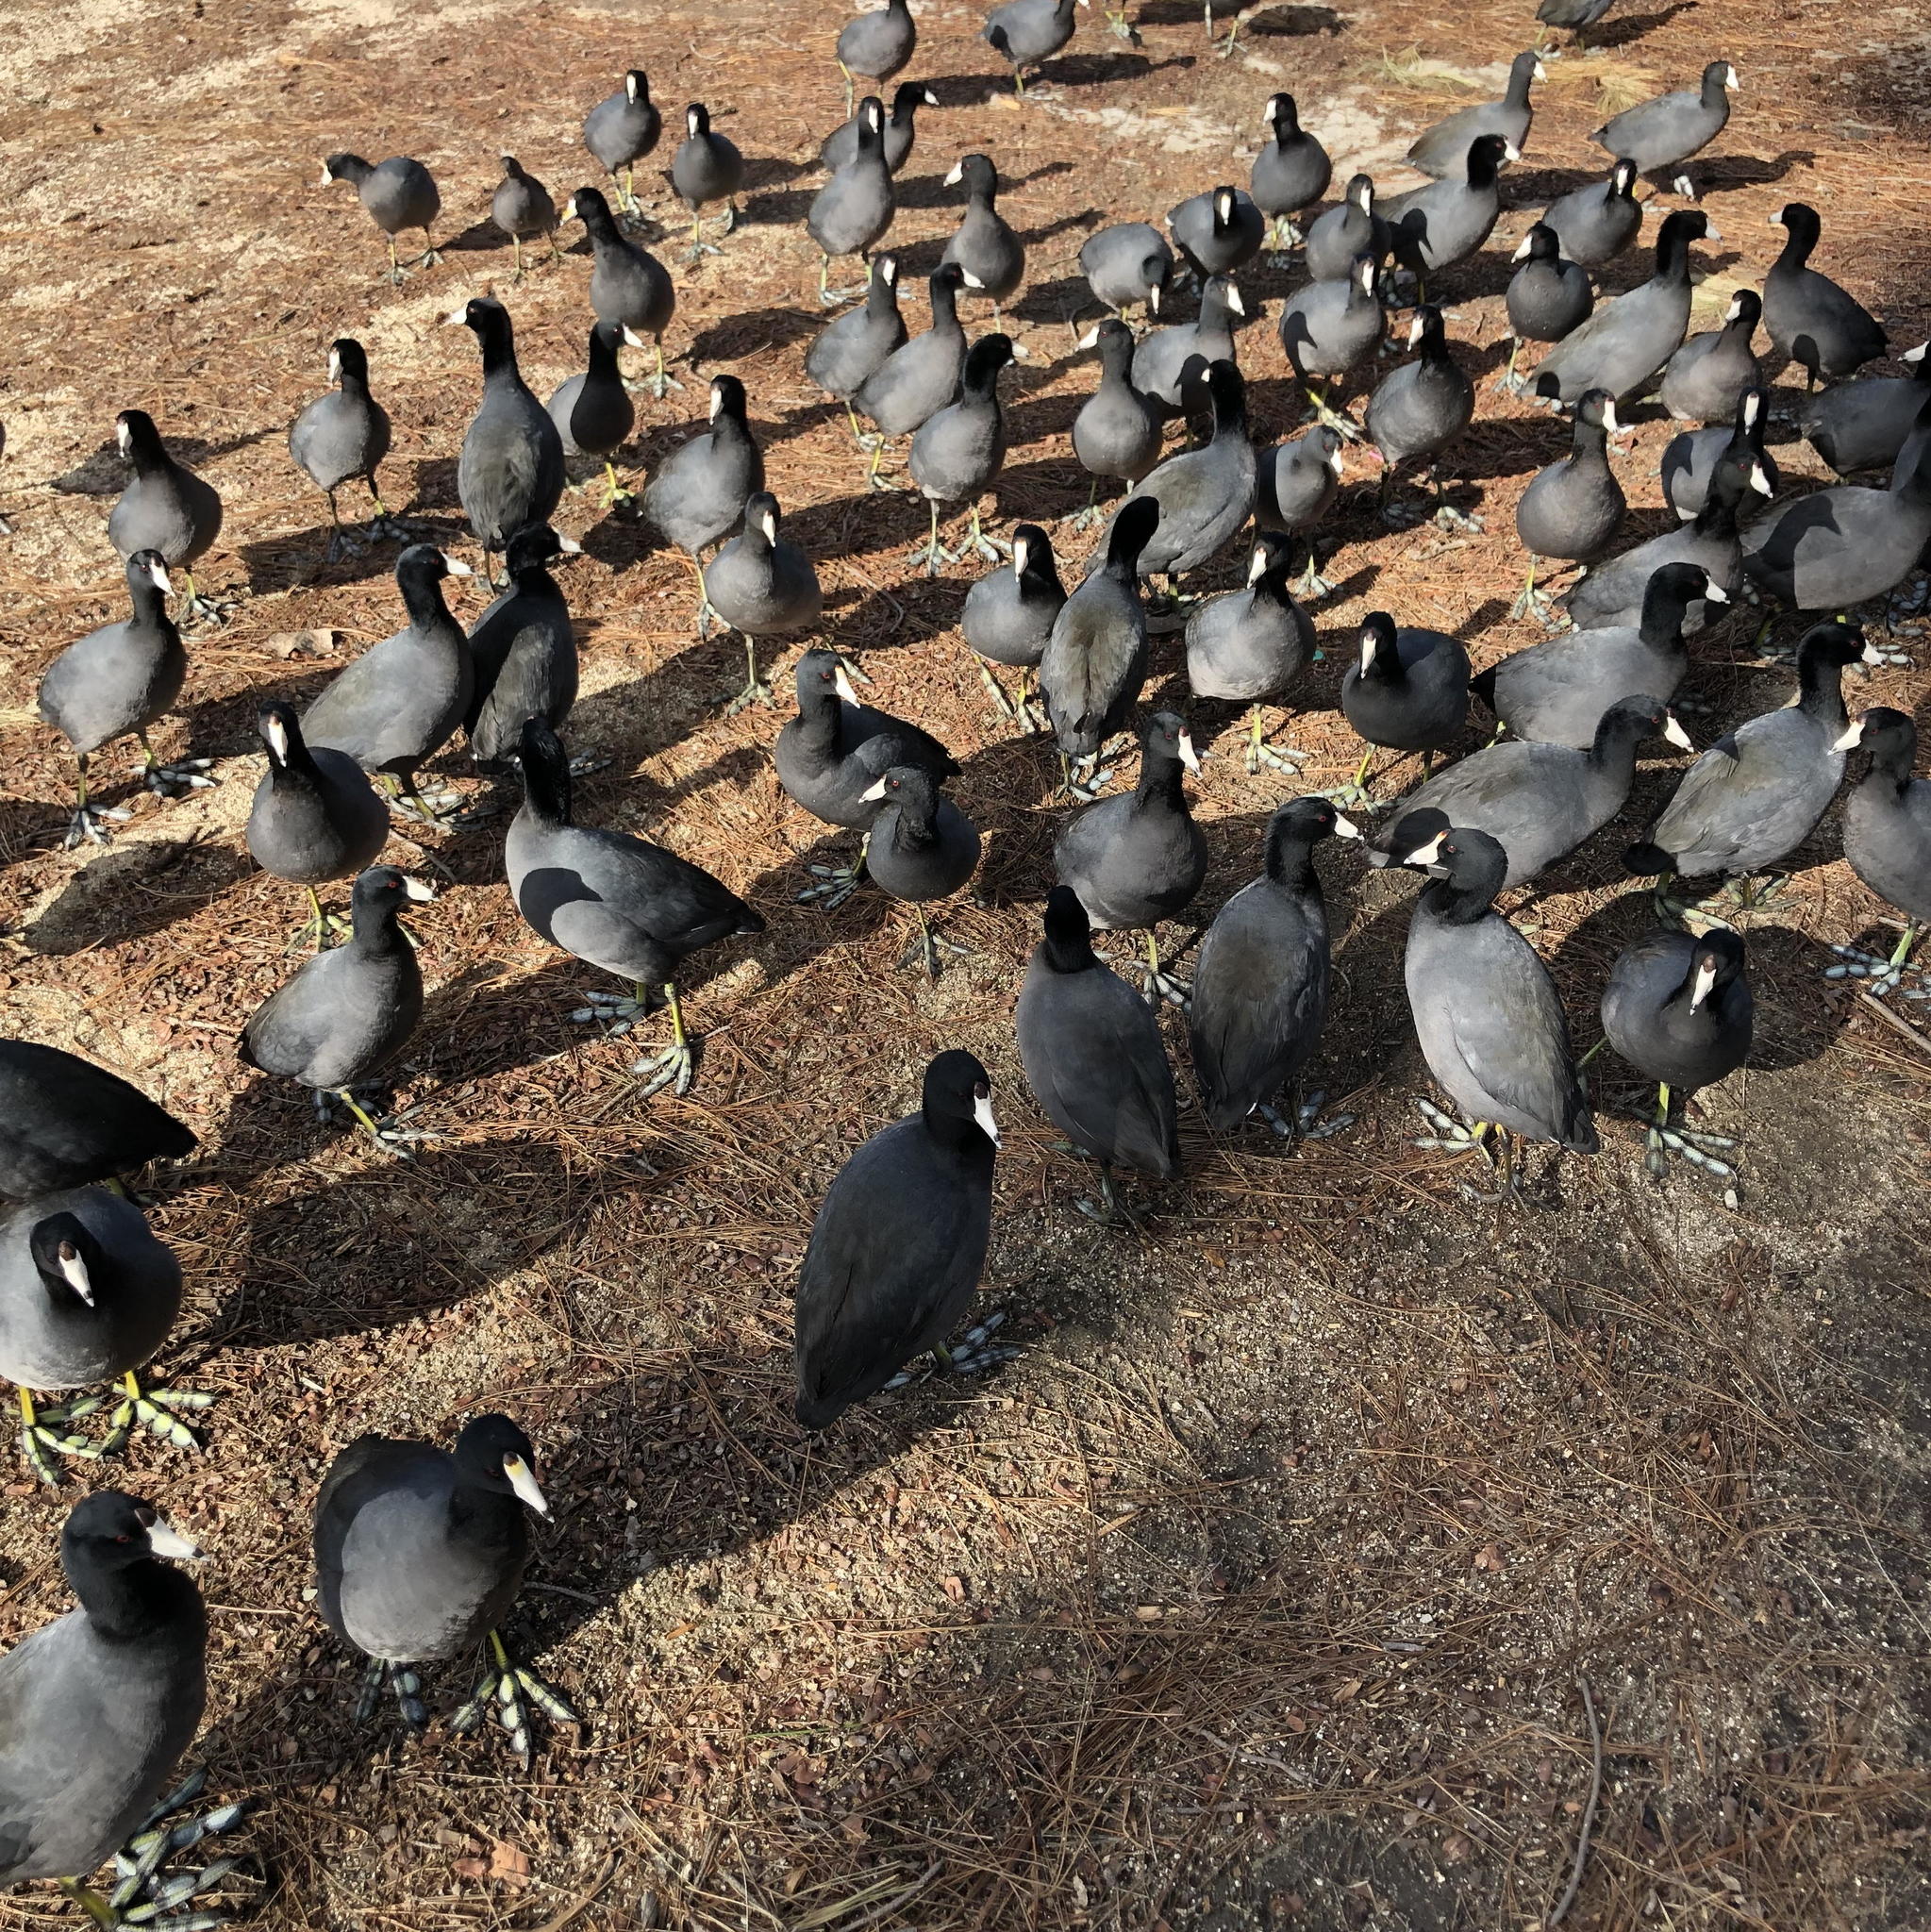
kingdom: Animalia
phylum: Chordata
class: Aves
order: Gruiformes
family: Rallidae
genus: Fulica
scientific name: Fulica americana
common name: American coot
